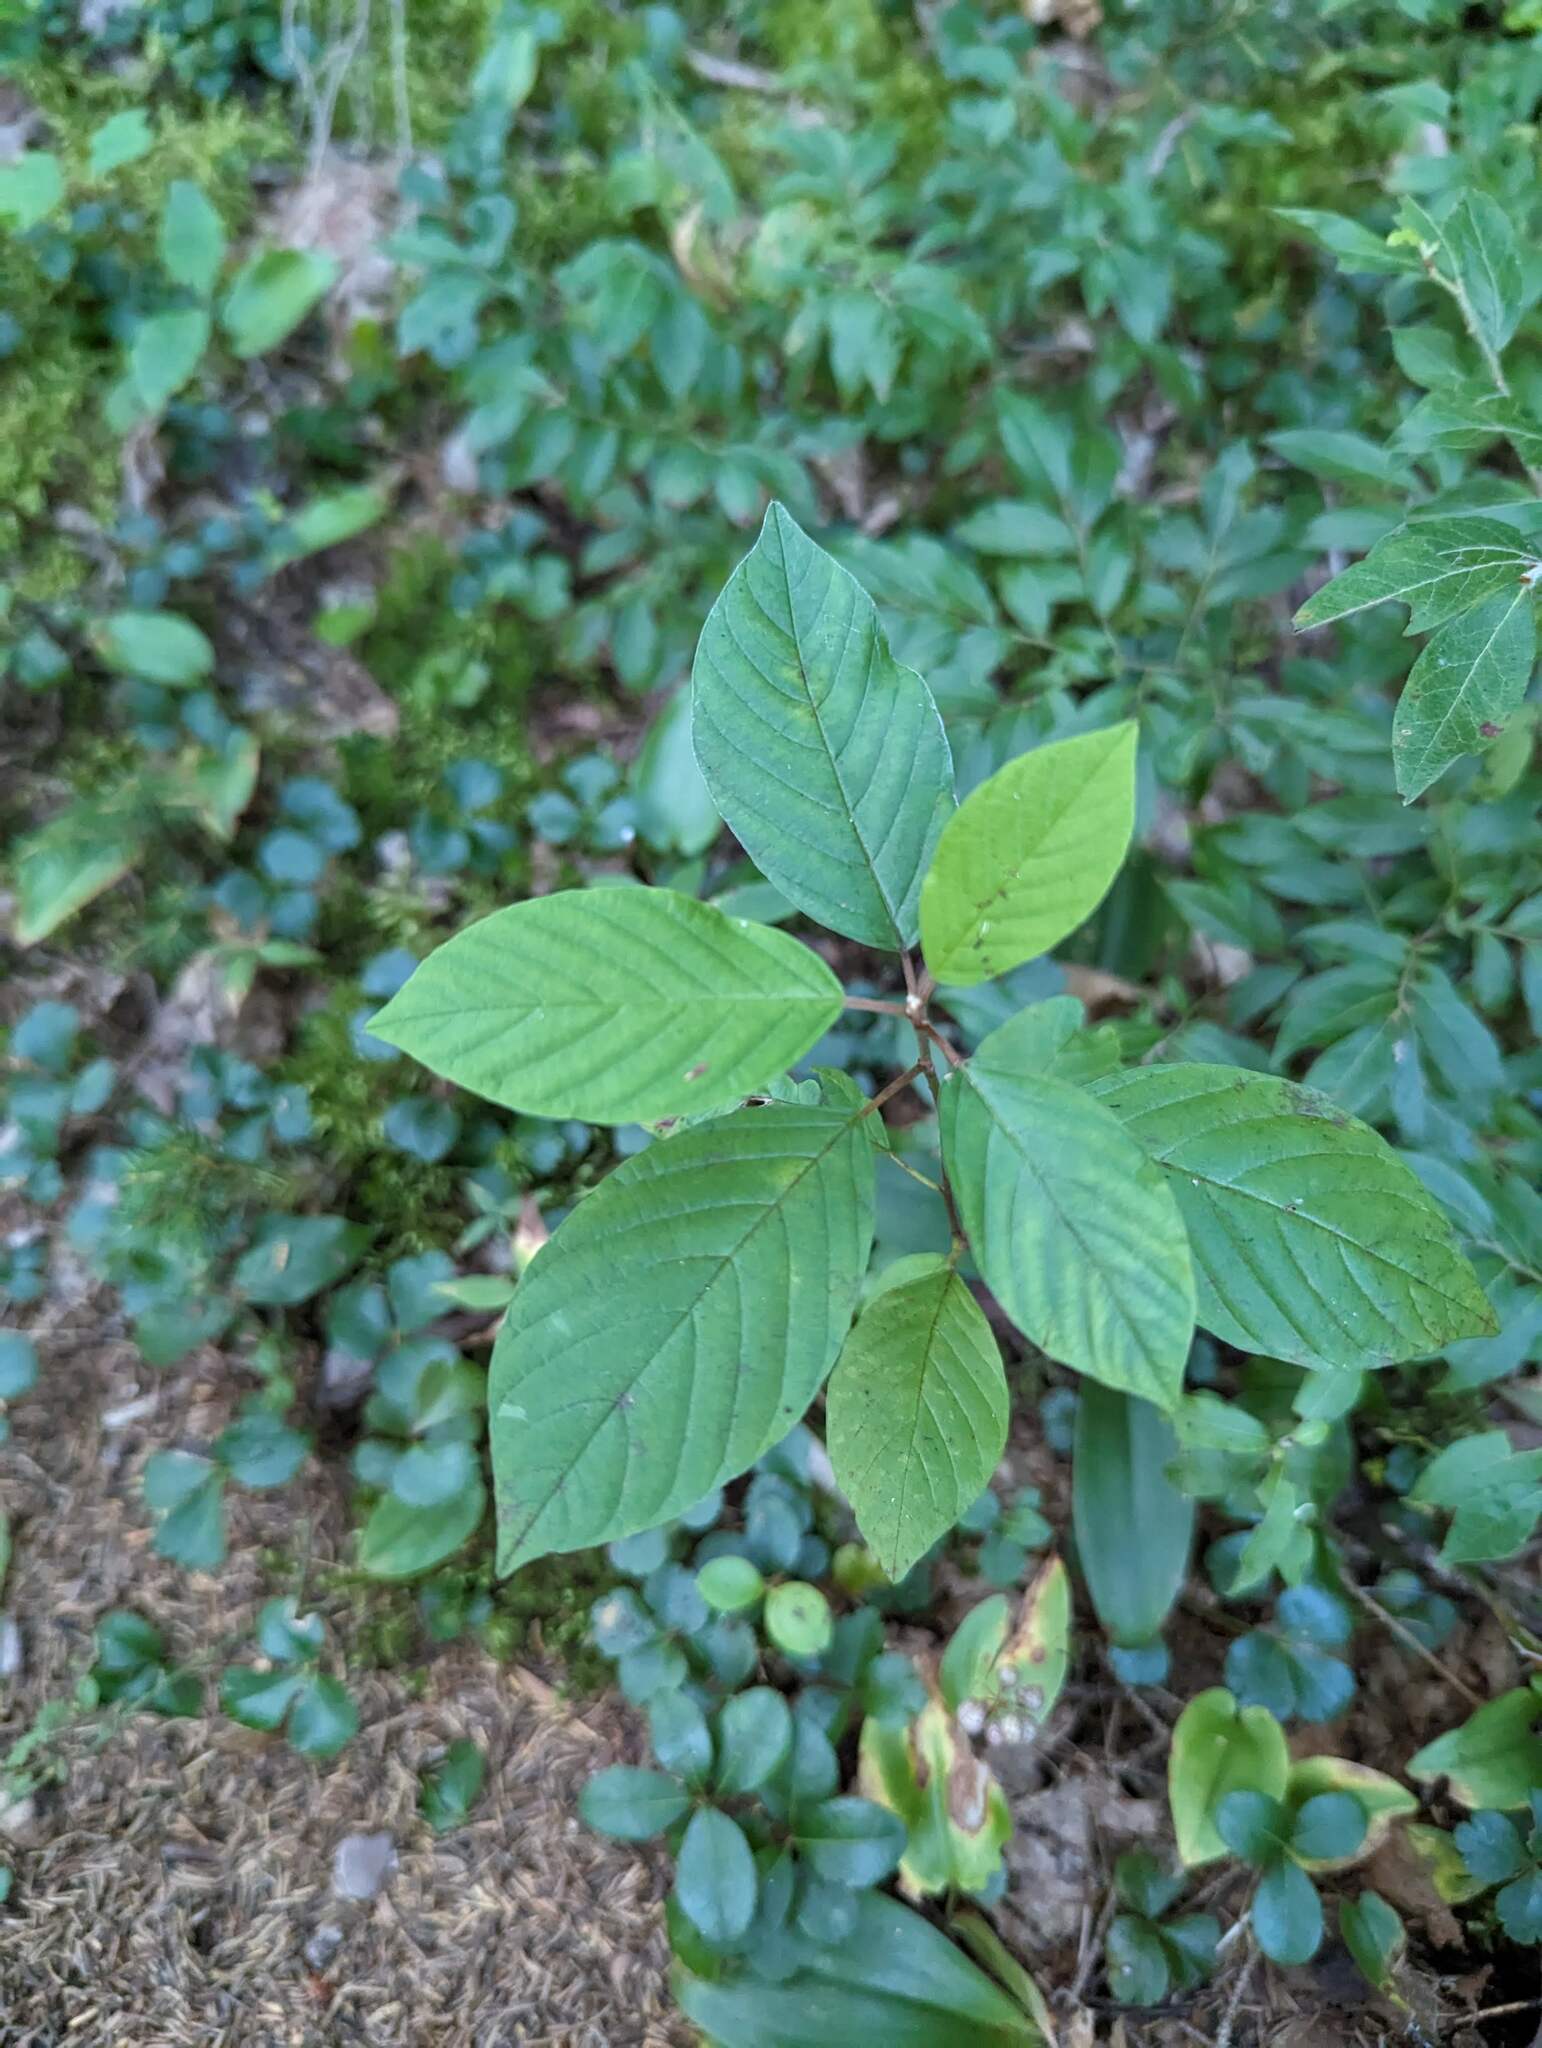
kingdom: Plantae
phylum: Tracheophyta
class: Magnoliopsida
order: Rosales
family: Rhamnaceae
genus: Frangula
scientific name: Frangula alnus
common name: Alder buckthorn
